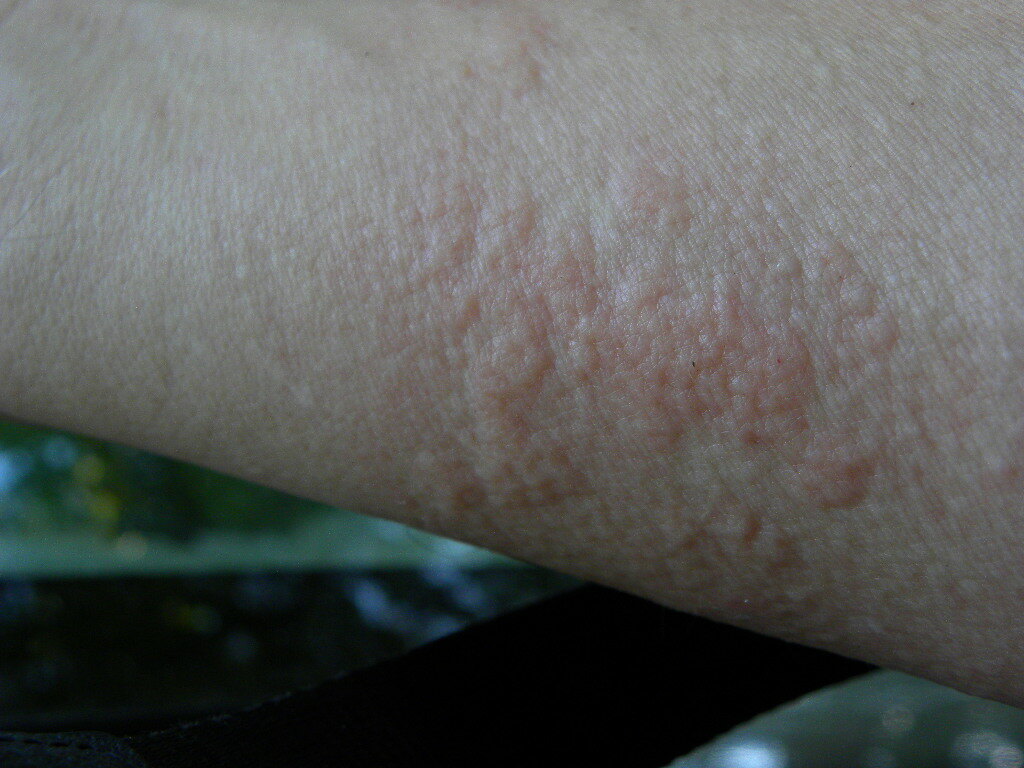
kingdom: Animalia
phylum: Arthropoda
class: Insecta
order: Lepidoptera
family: Limacodidae
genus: Acharia
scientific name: Acharia stimulea
